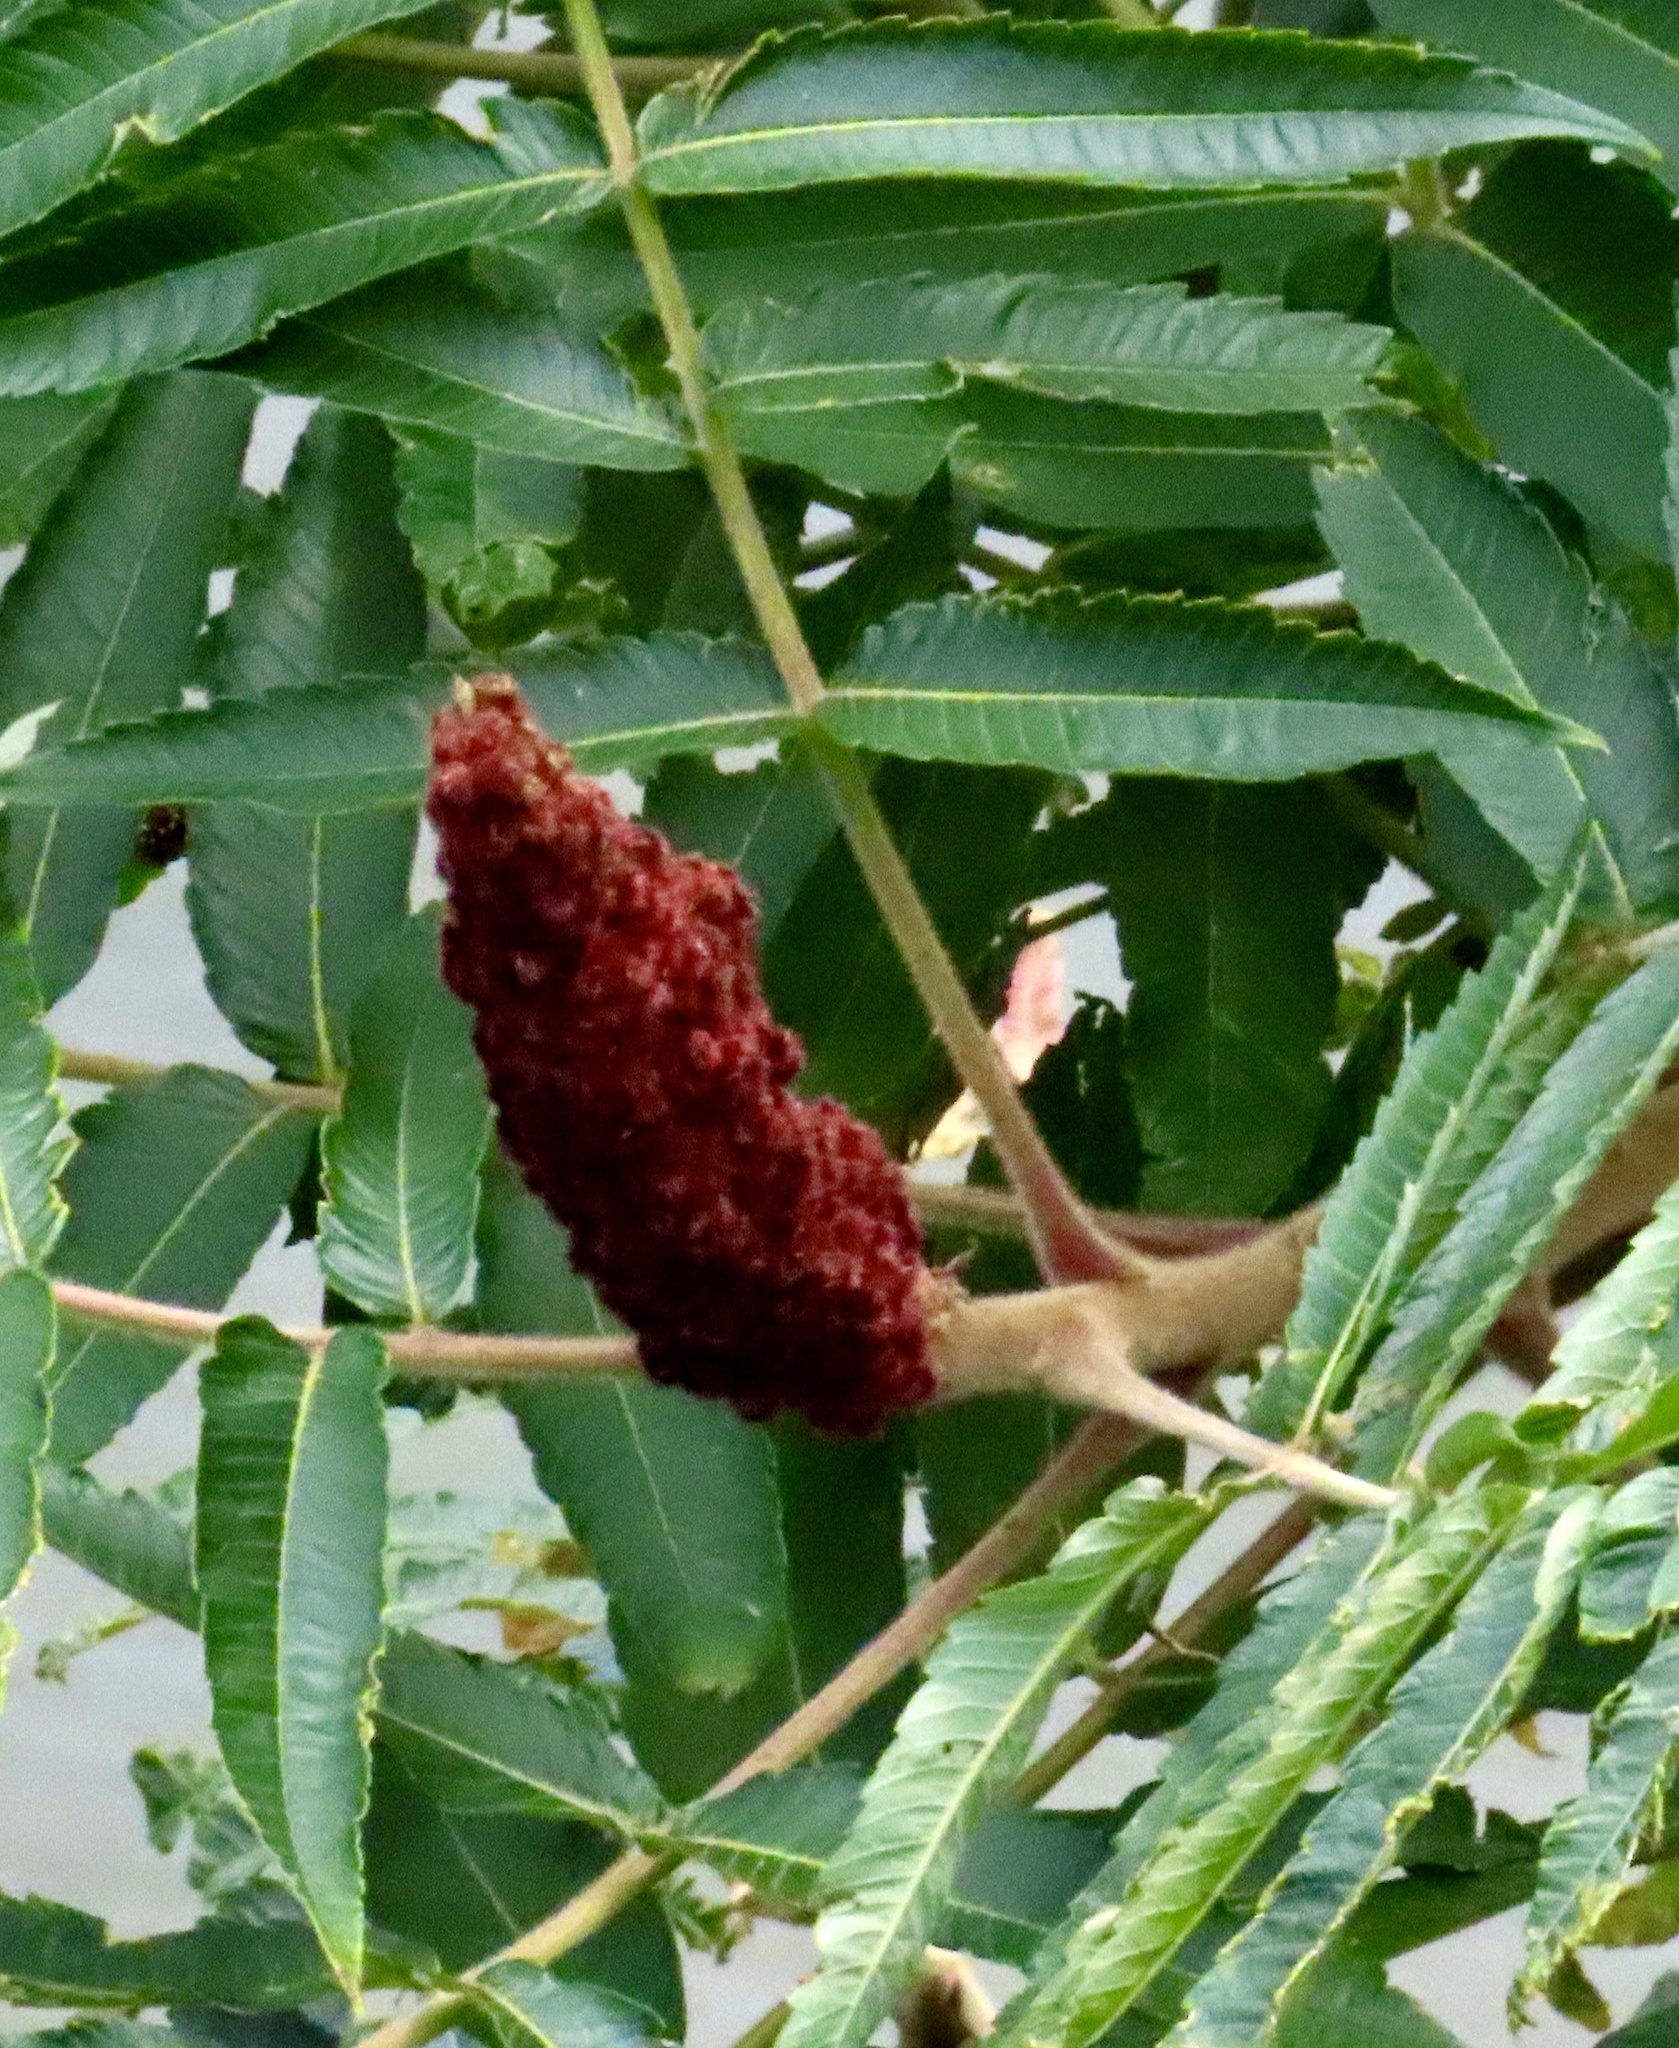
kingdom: Plantae
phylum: Tracheophyta
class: Magnoliopsida
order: Sapindales
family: Anacardiaceae
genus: Rhus
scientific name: Rhus typhina
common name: Staghorn sumac
